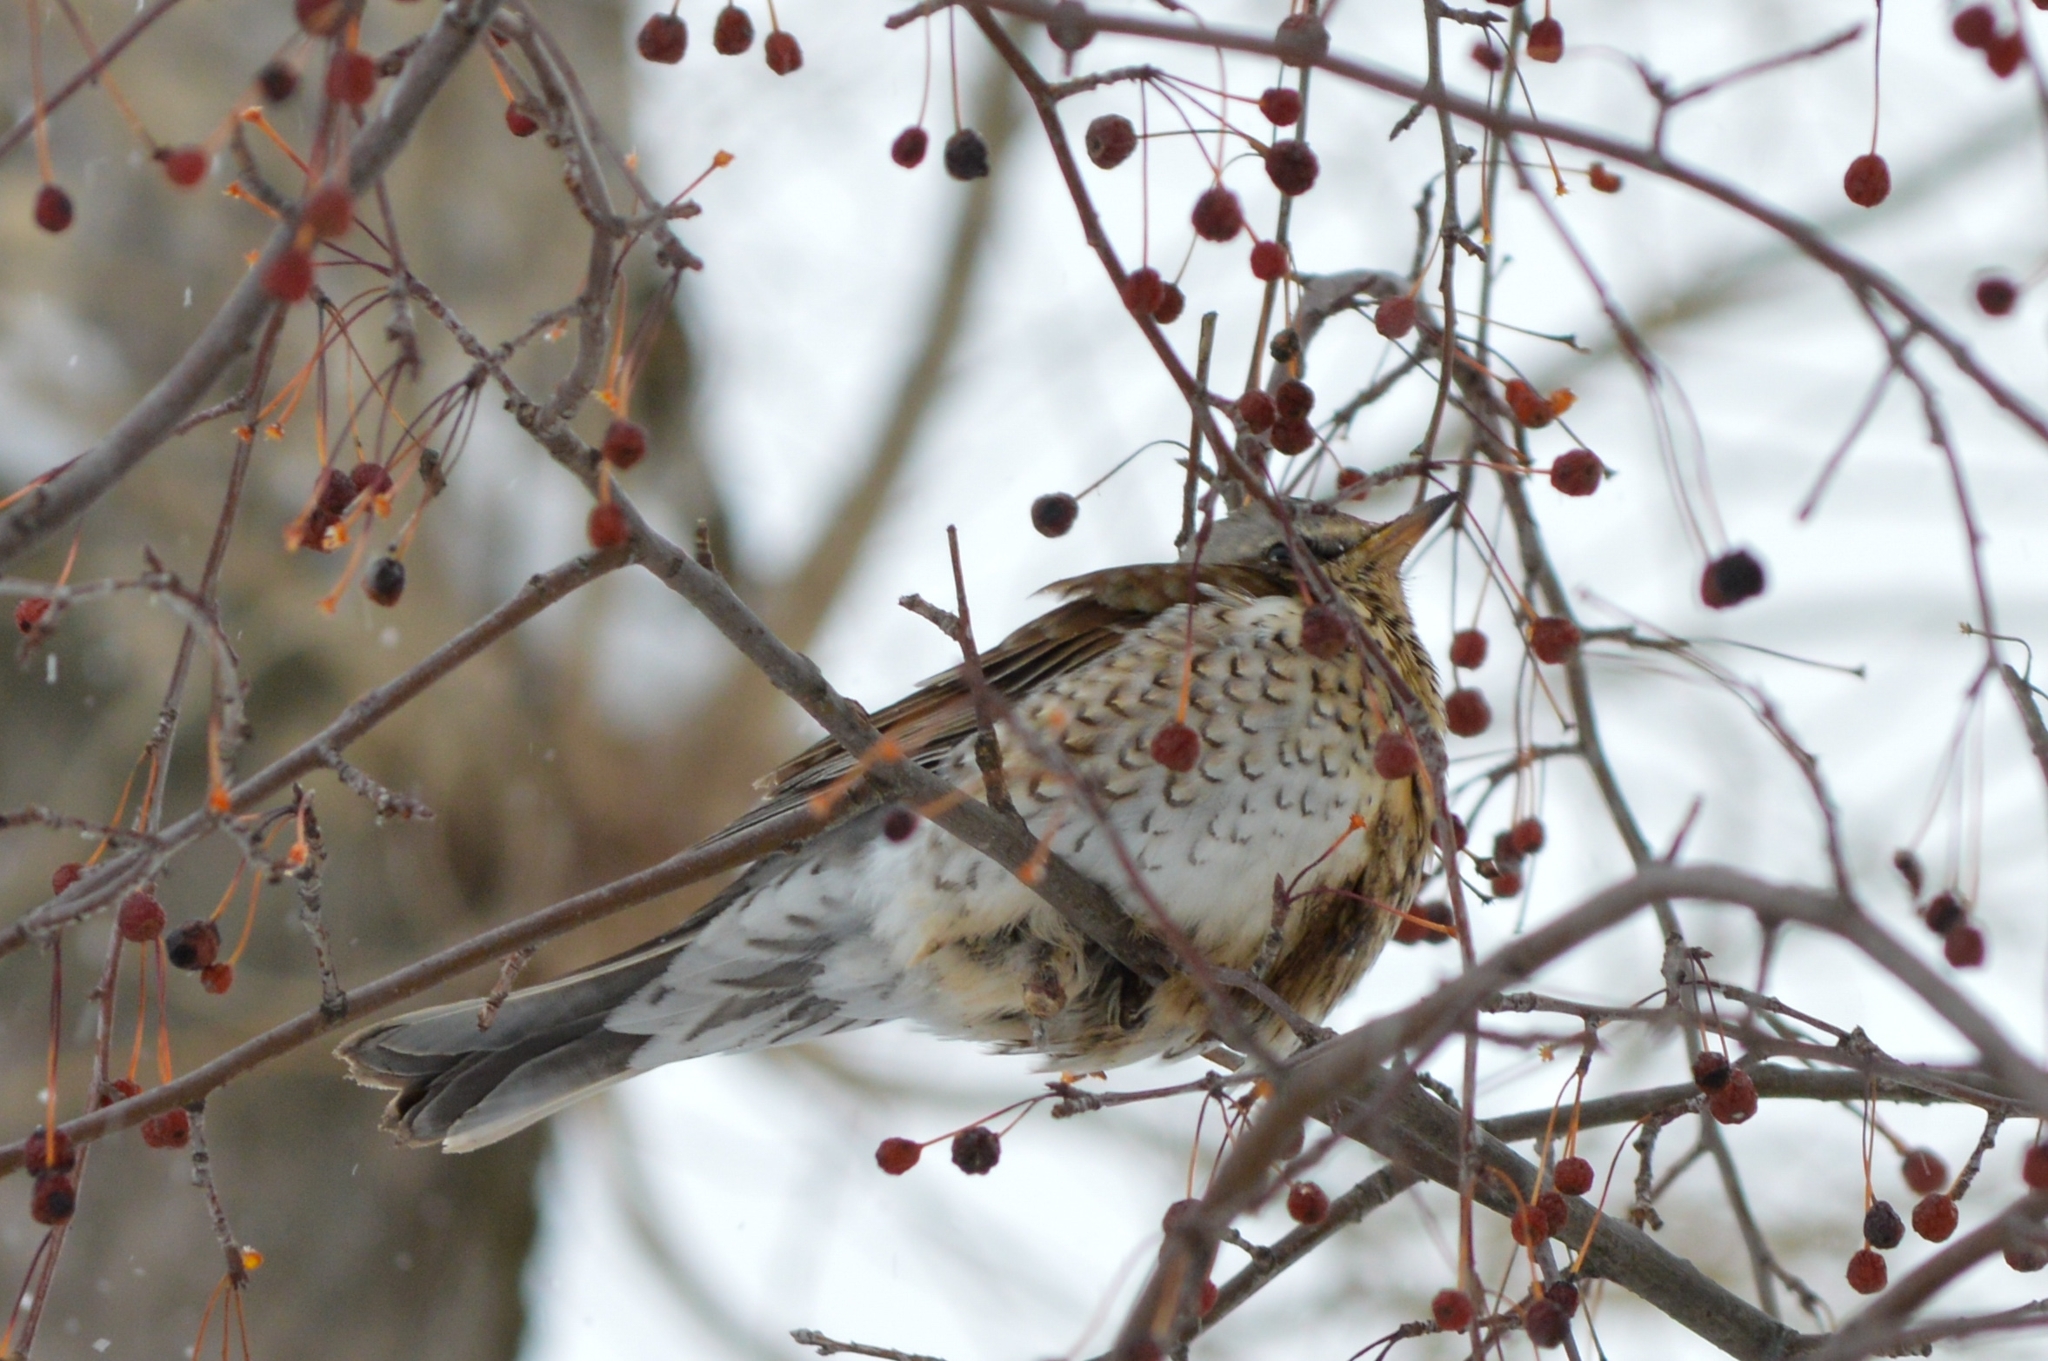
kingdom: Animalia
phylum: Chordata
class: Aves
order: Passeriformes
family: Turdidae
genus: Turdus
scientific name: Turdus pilaris
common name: Fieldfare
